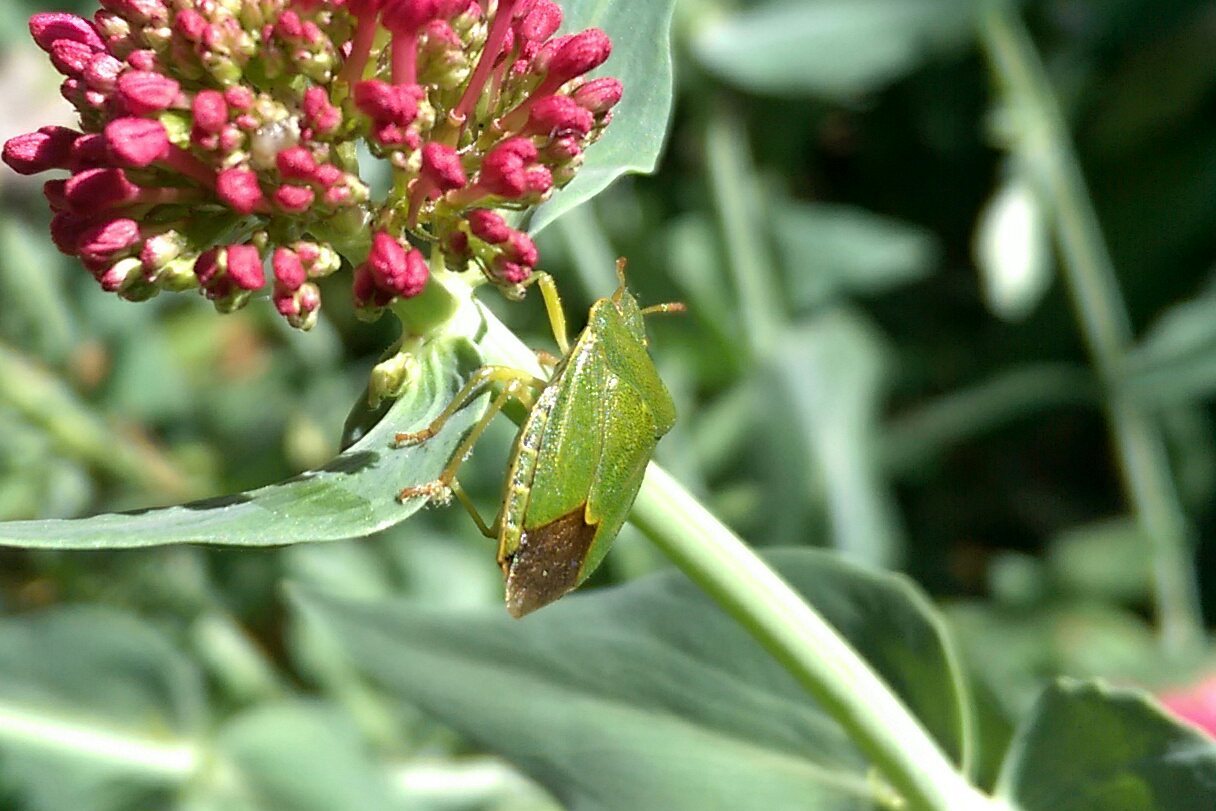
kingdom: Animalia
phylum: Arthropoda
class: Insecta
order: Hemiptera
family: Pentatomidae
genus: Palomena
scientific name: Palomena prasina
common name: Green shieldbug
